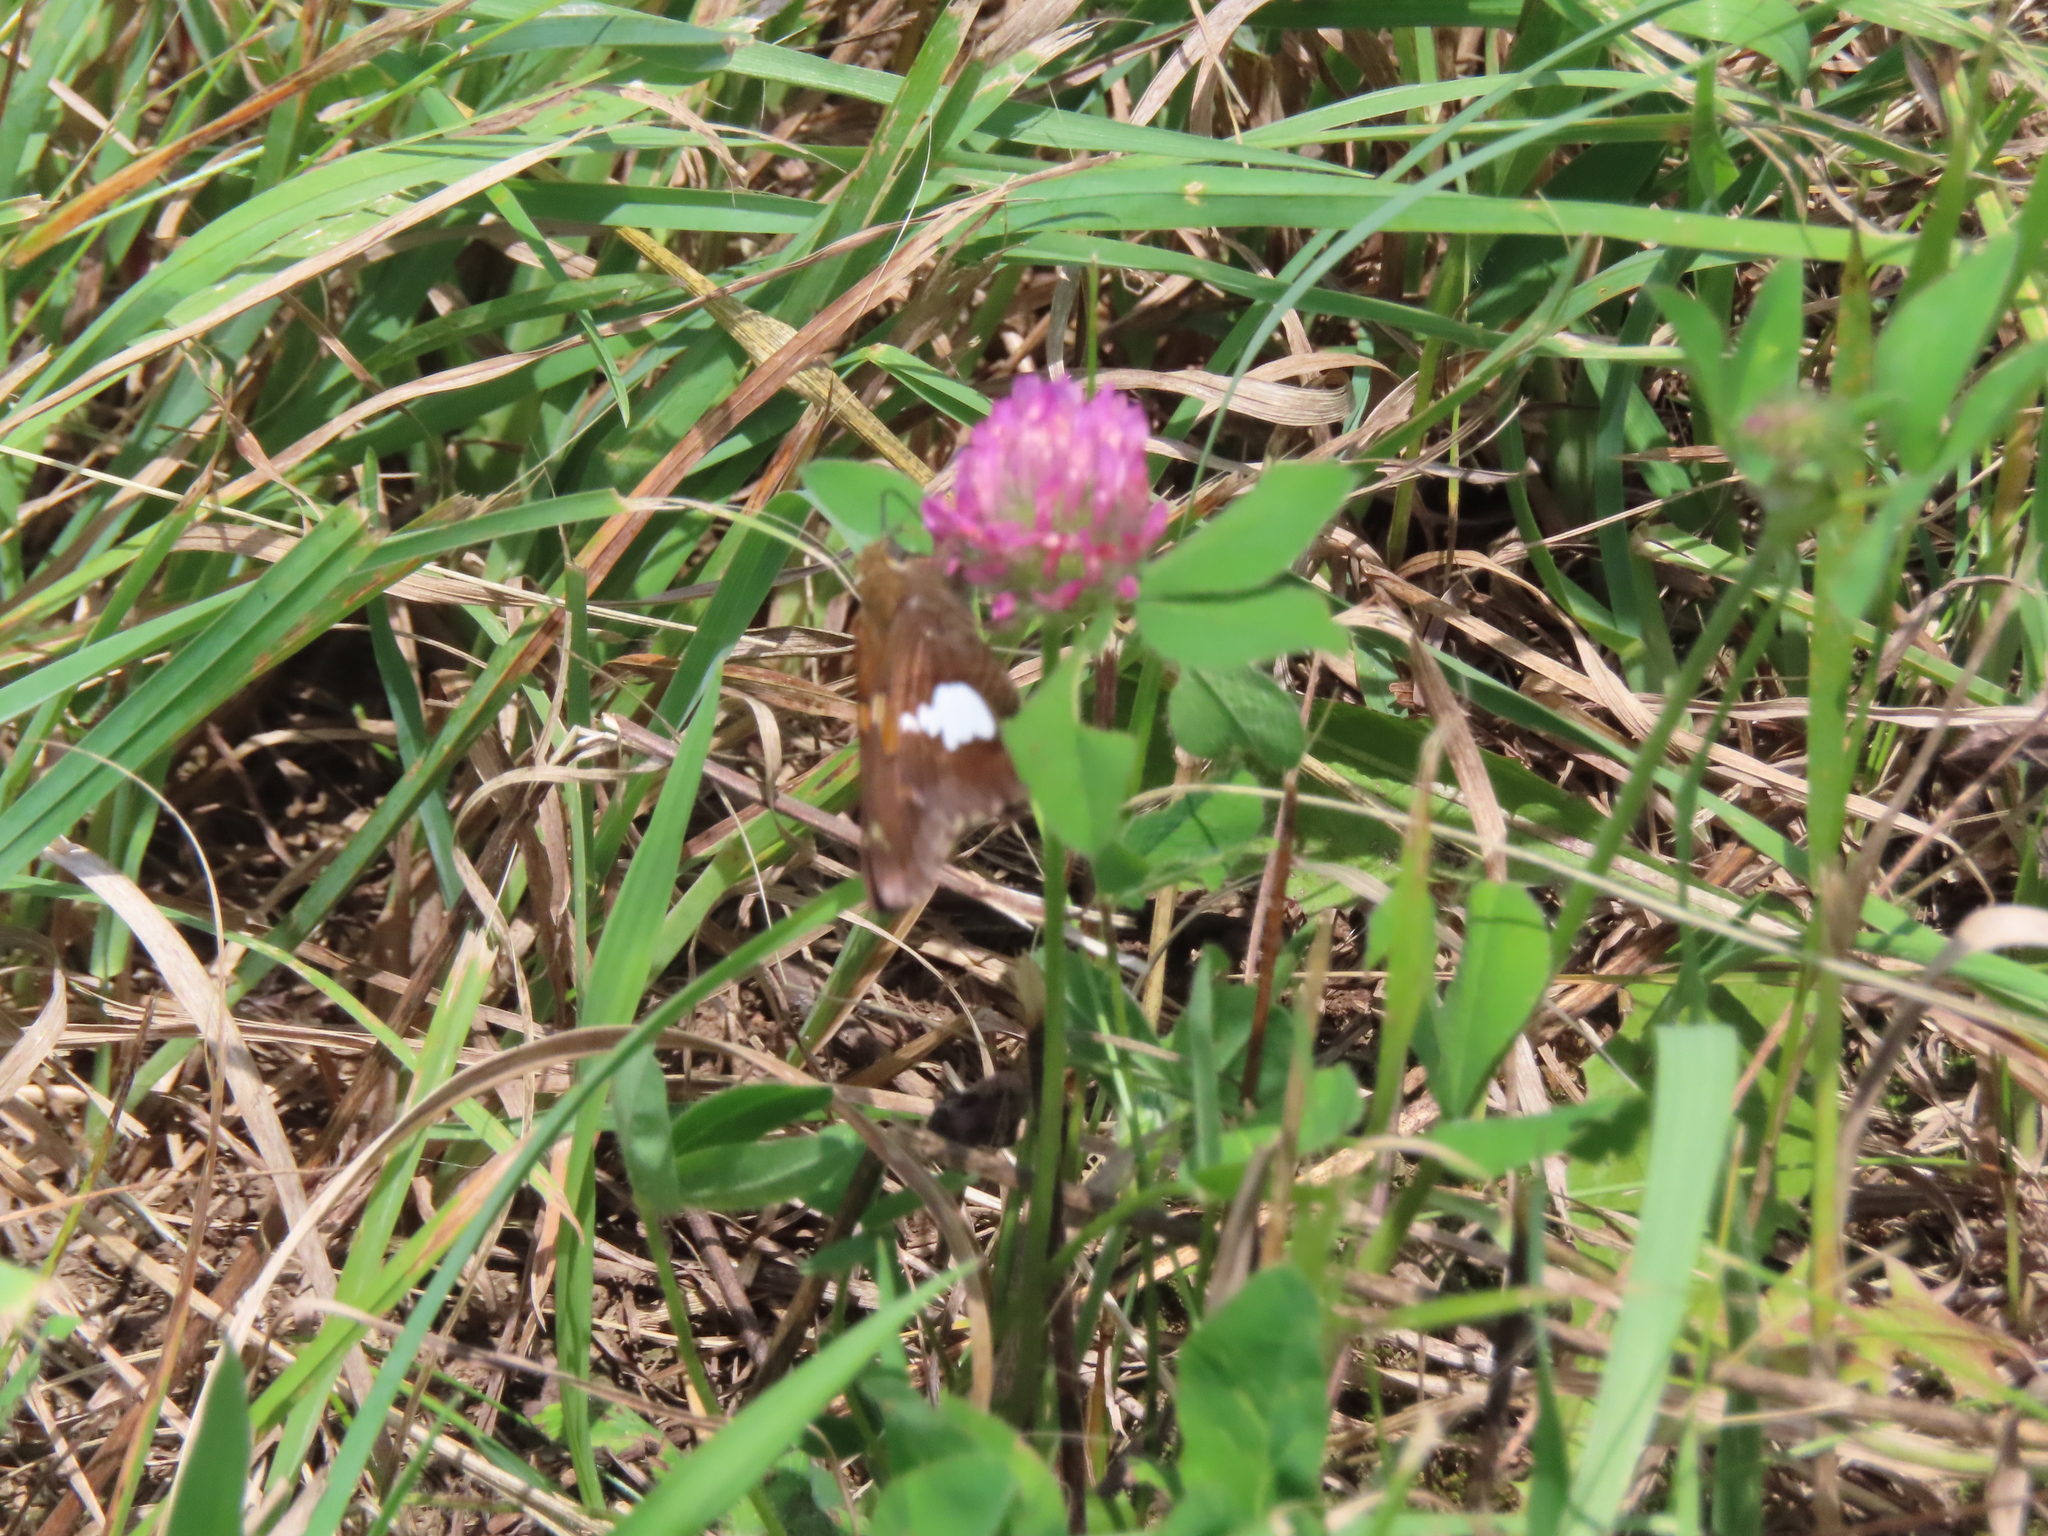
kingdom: Animalia
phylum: Arthropoda
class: Insecta
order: Lepidoptera
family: Hesperiidae
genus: Epargyreus
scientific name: Epargyreus clarus
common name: Silver-spotted skipper
